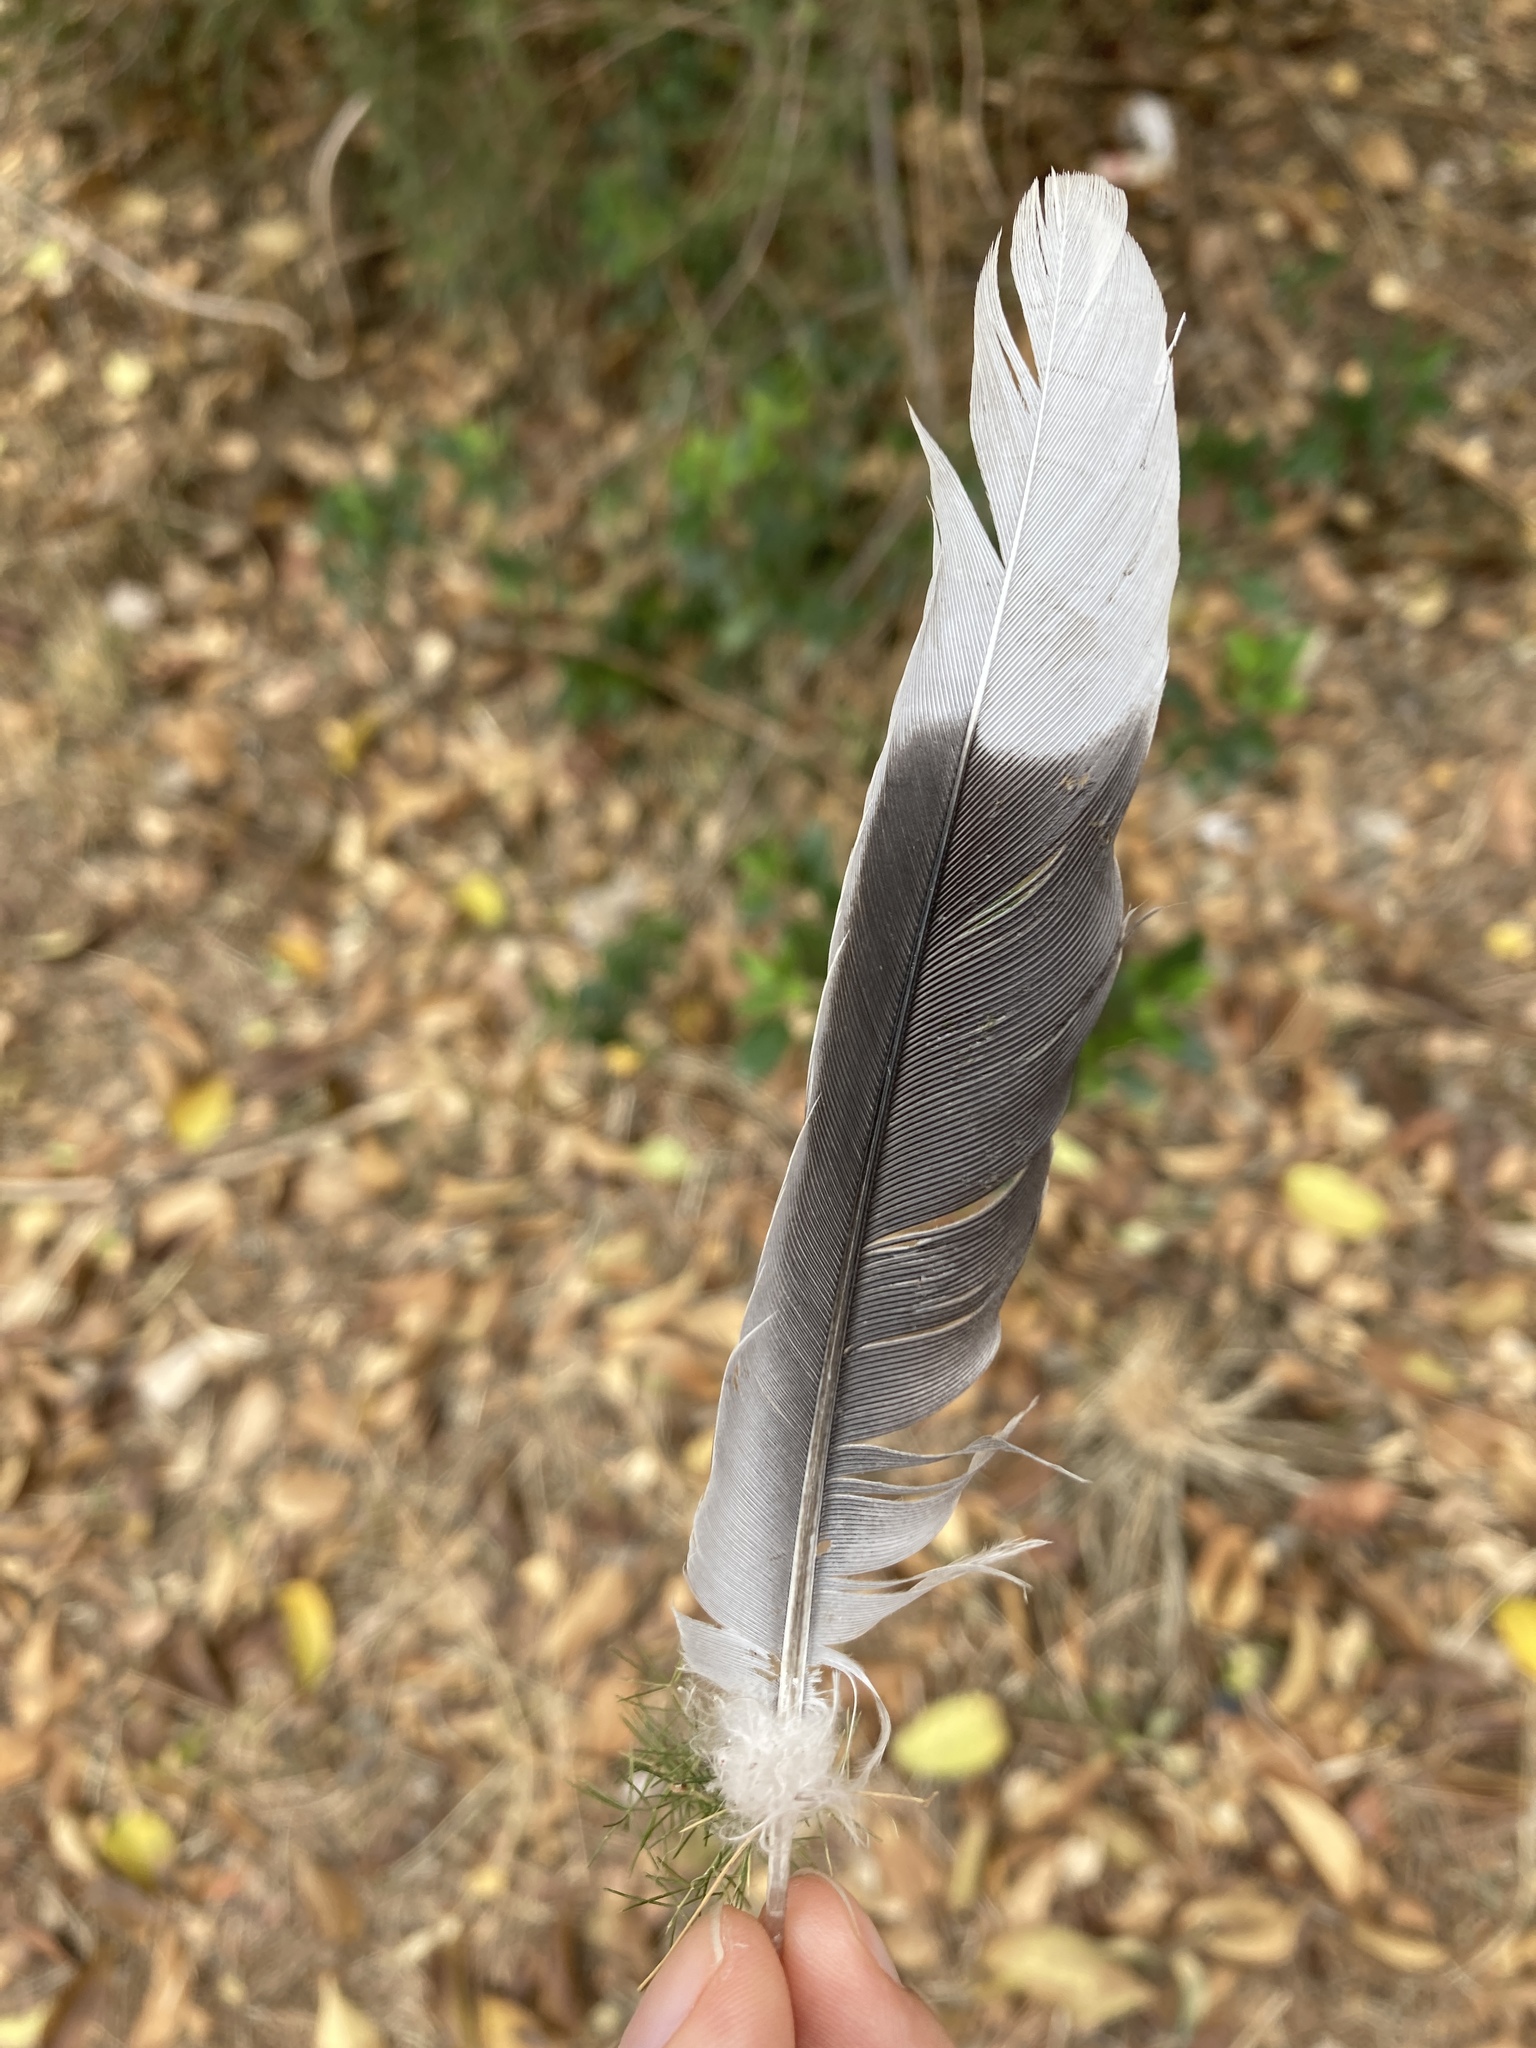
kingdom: Animalia
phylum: Chordata
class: Aves
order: Columbiformes
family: Columbidae
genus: Streptopelia
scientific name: Streptopelia decaocto
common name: Eurasian collared dove
